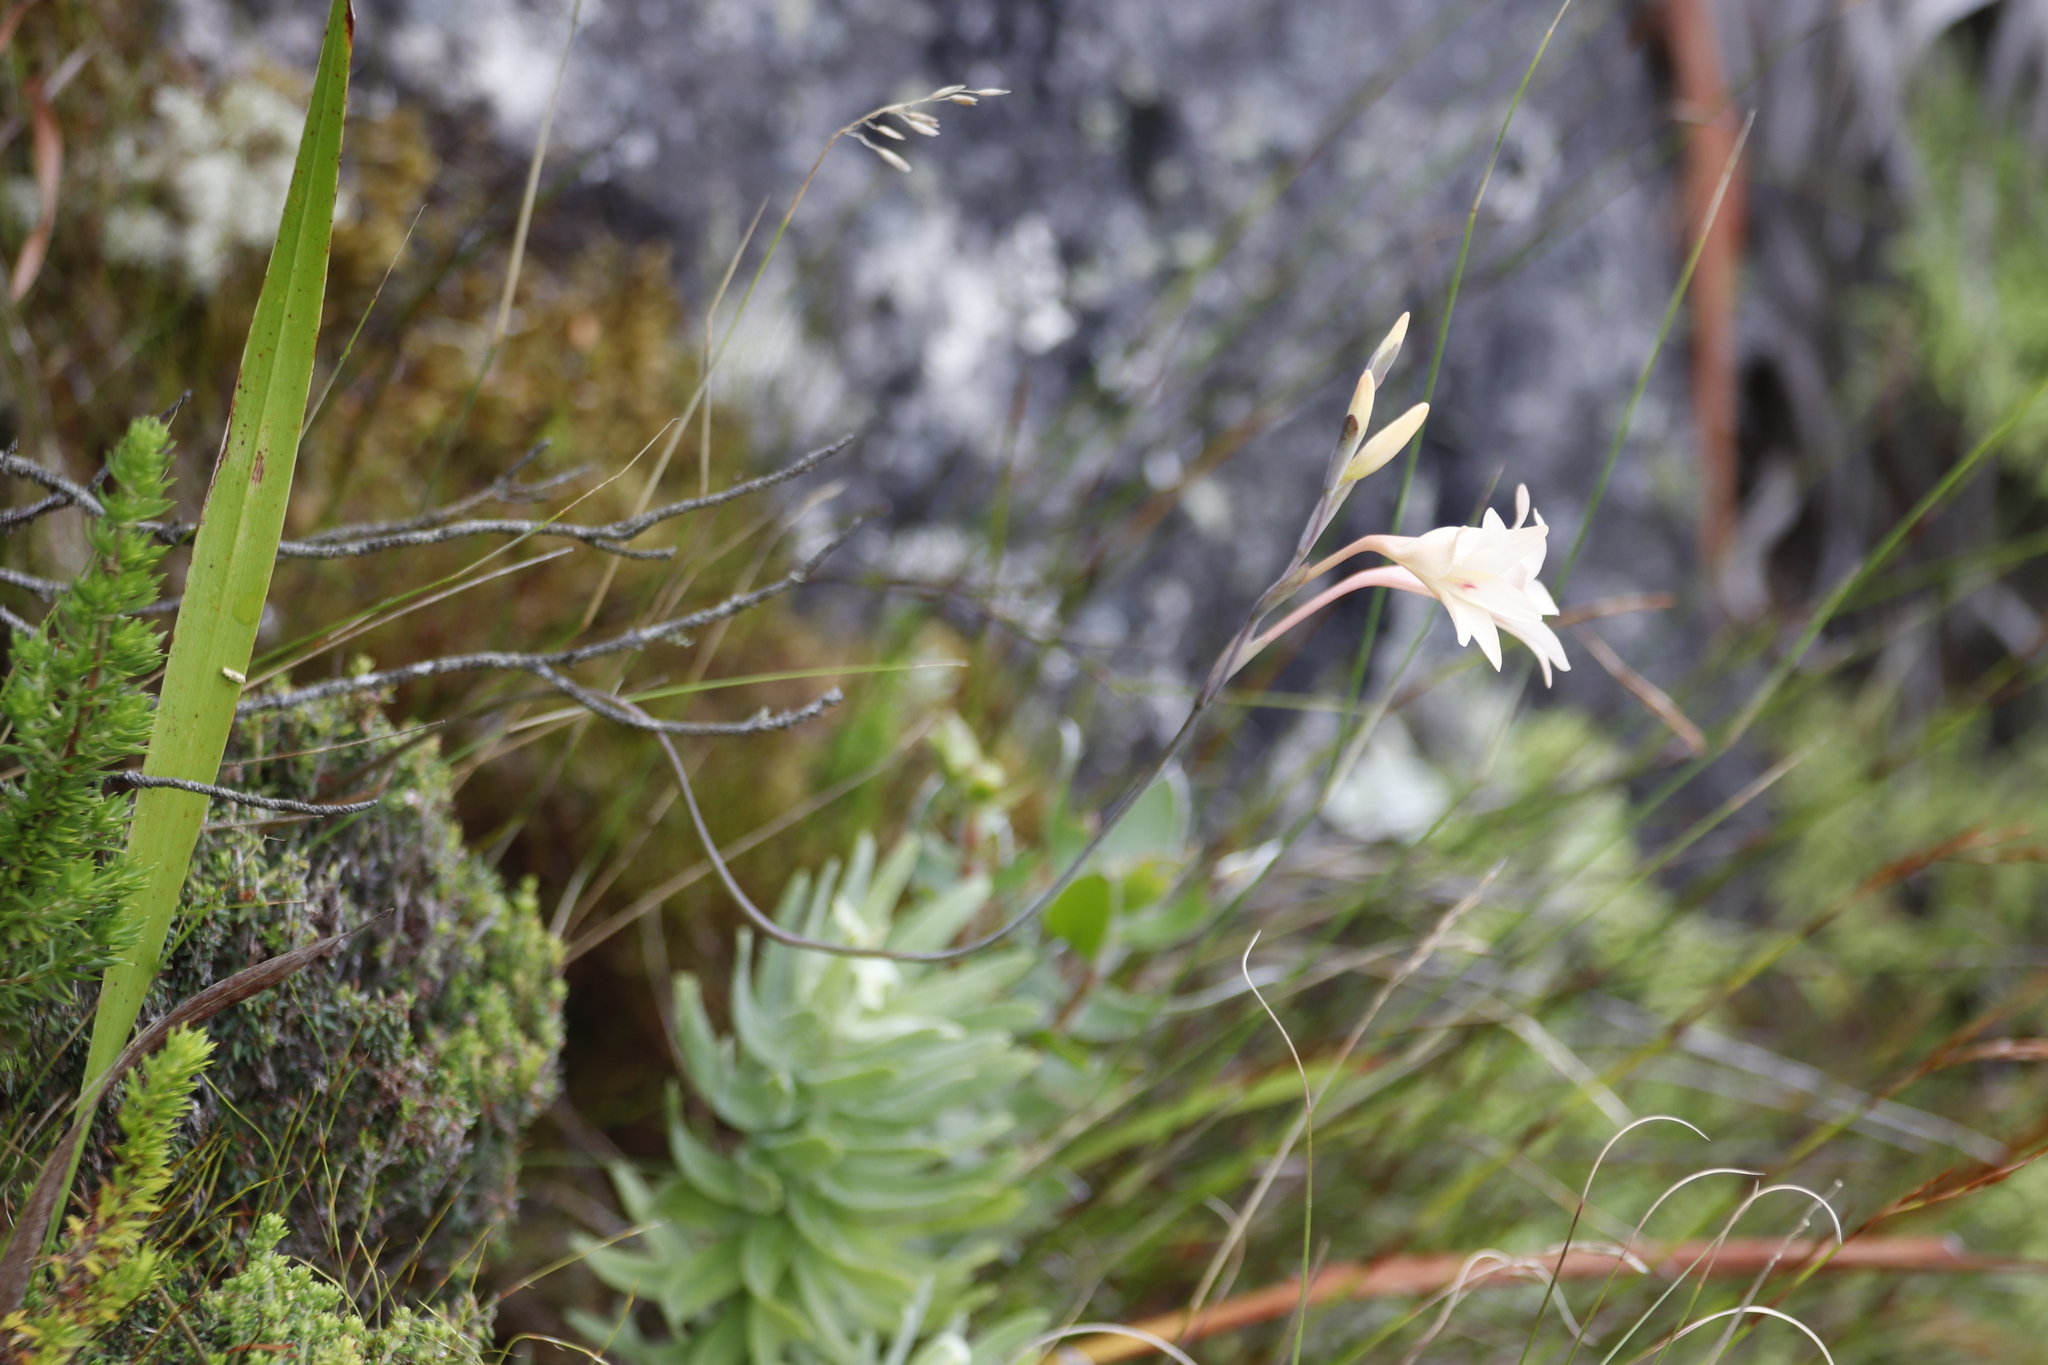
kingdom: Plantae
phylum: Tracheophyta
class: Liliopsida
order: Asparagales
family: Iridaceae
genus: Gladiolus
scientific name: Gladiolus monticola
